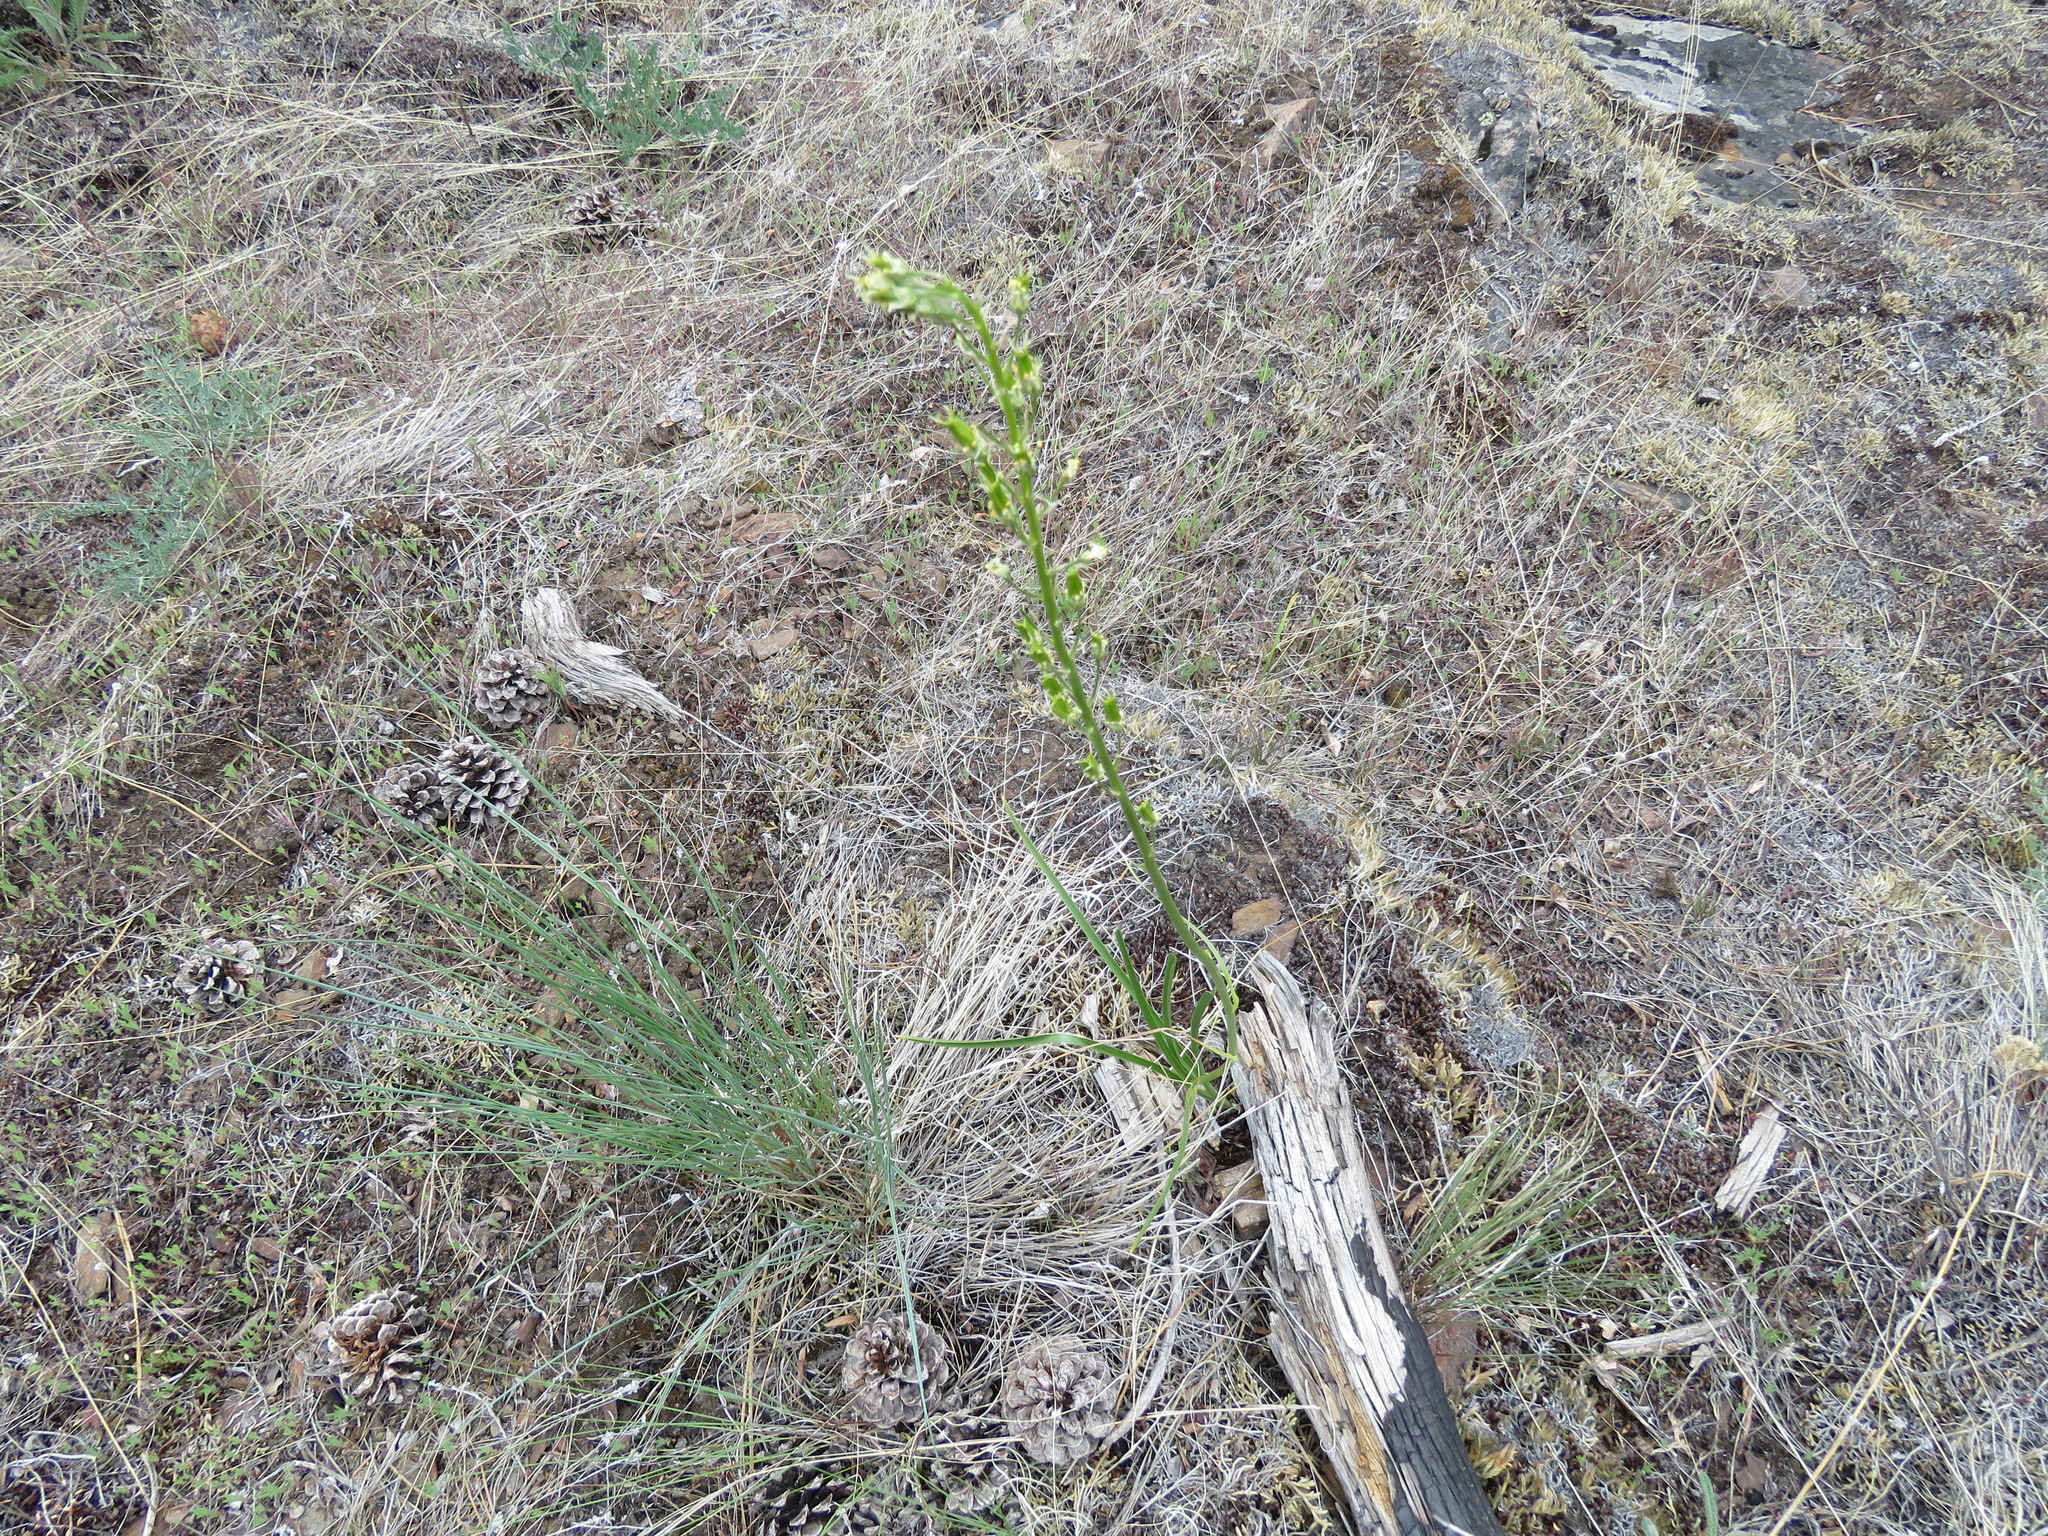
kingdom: Plantae
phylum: Tracheophyta
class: Liliopsida
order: Liliales
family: Melanthiaceae
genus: Toxicoscordion
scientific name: Toxicoscordion venenosum
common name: Meadow death camas
